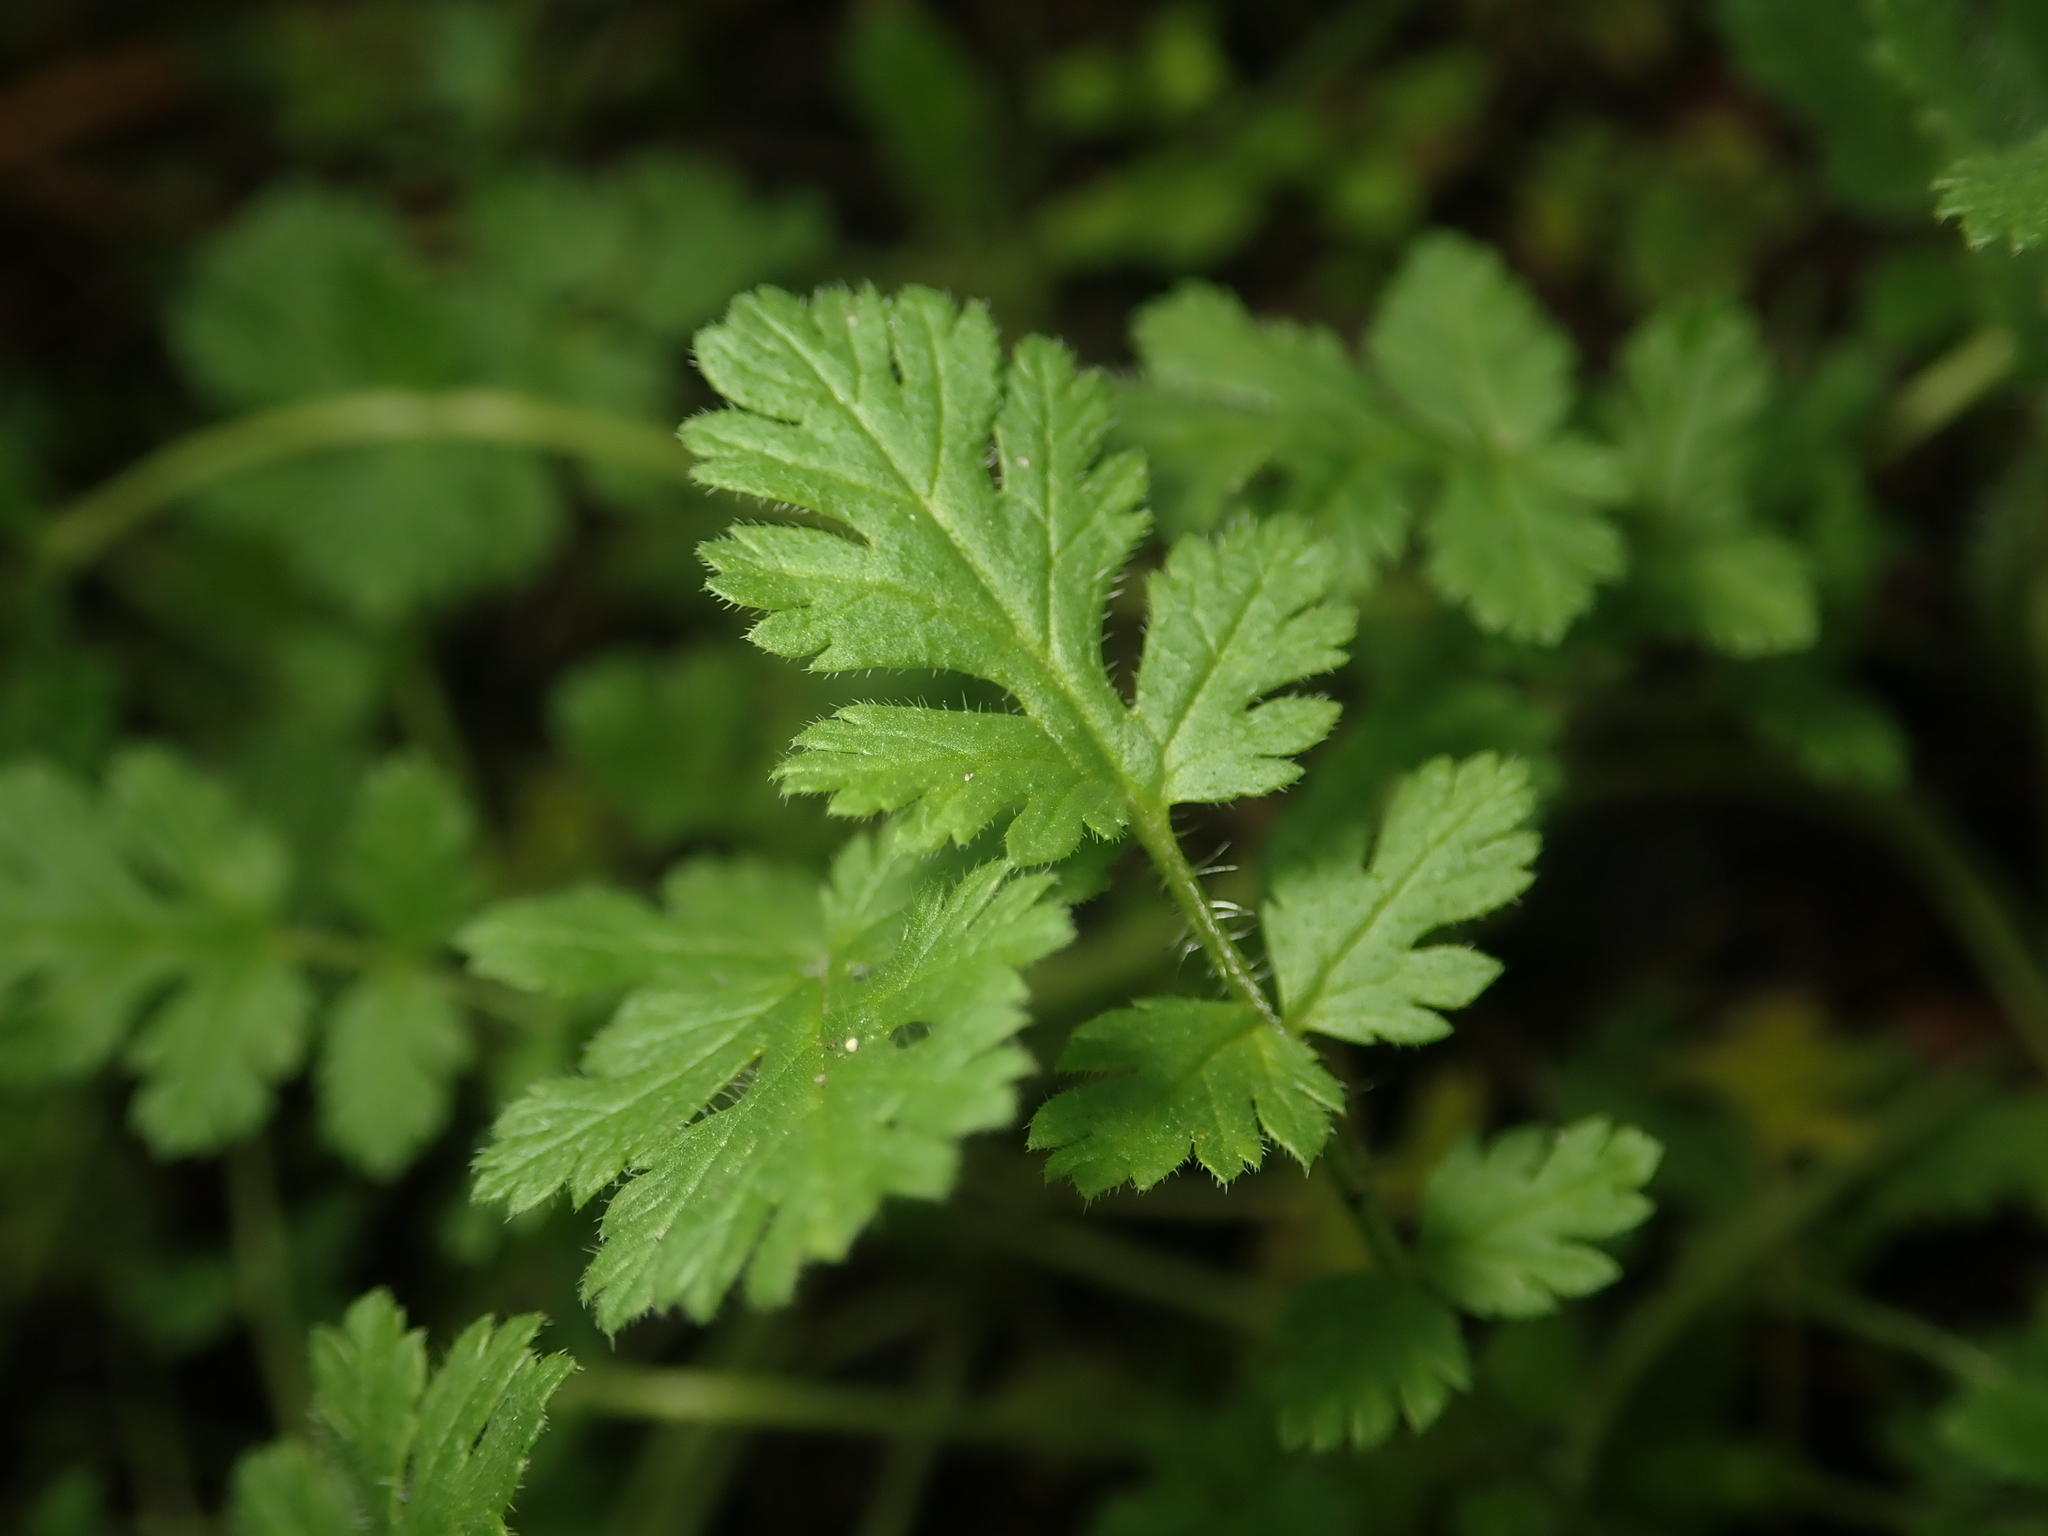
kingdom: Plantae
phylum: Tracheophyta
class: Magnoliopsida
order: Geraniales
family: Geraniaceae
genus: Erodium
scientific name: Erodium cicutarium
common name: Common stork's-bill
